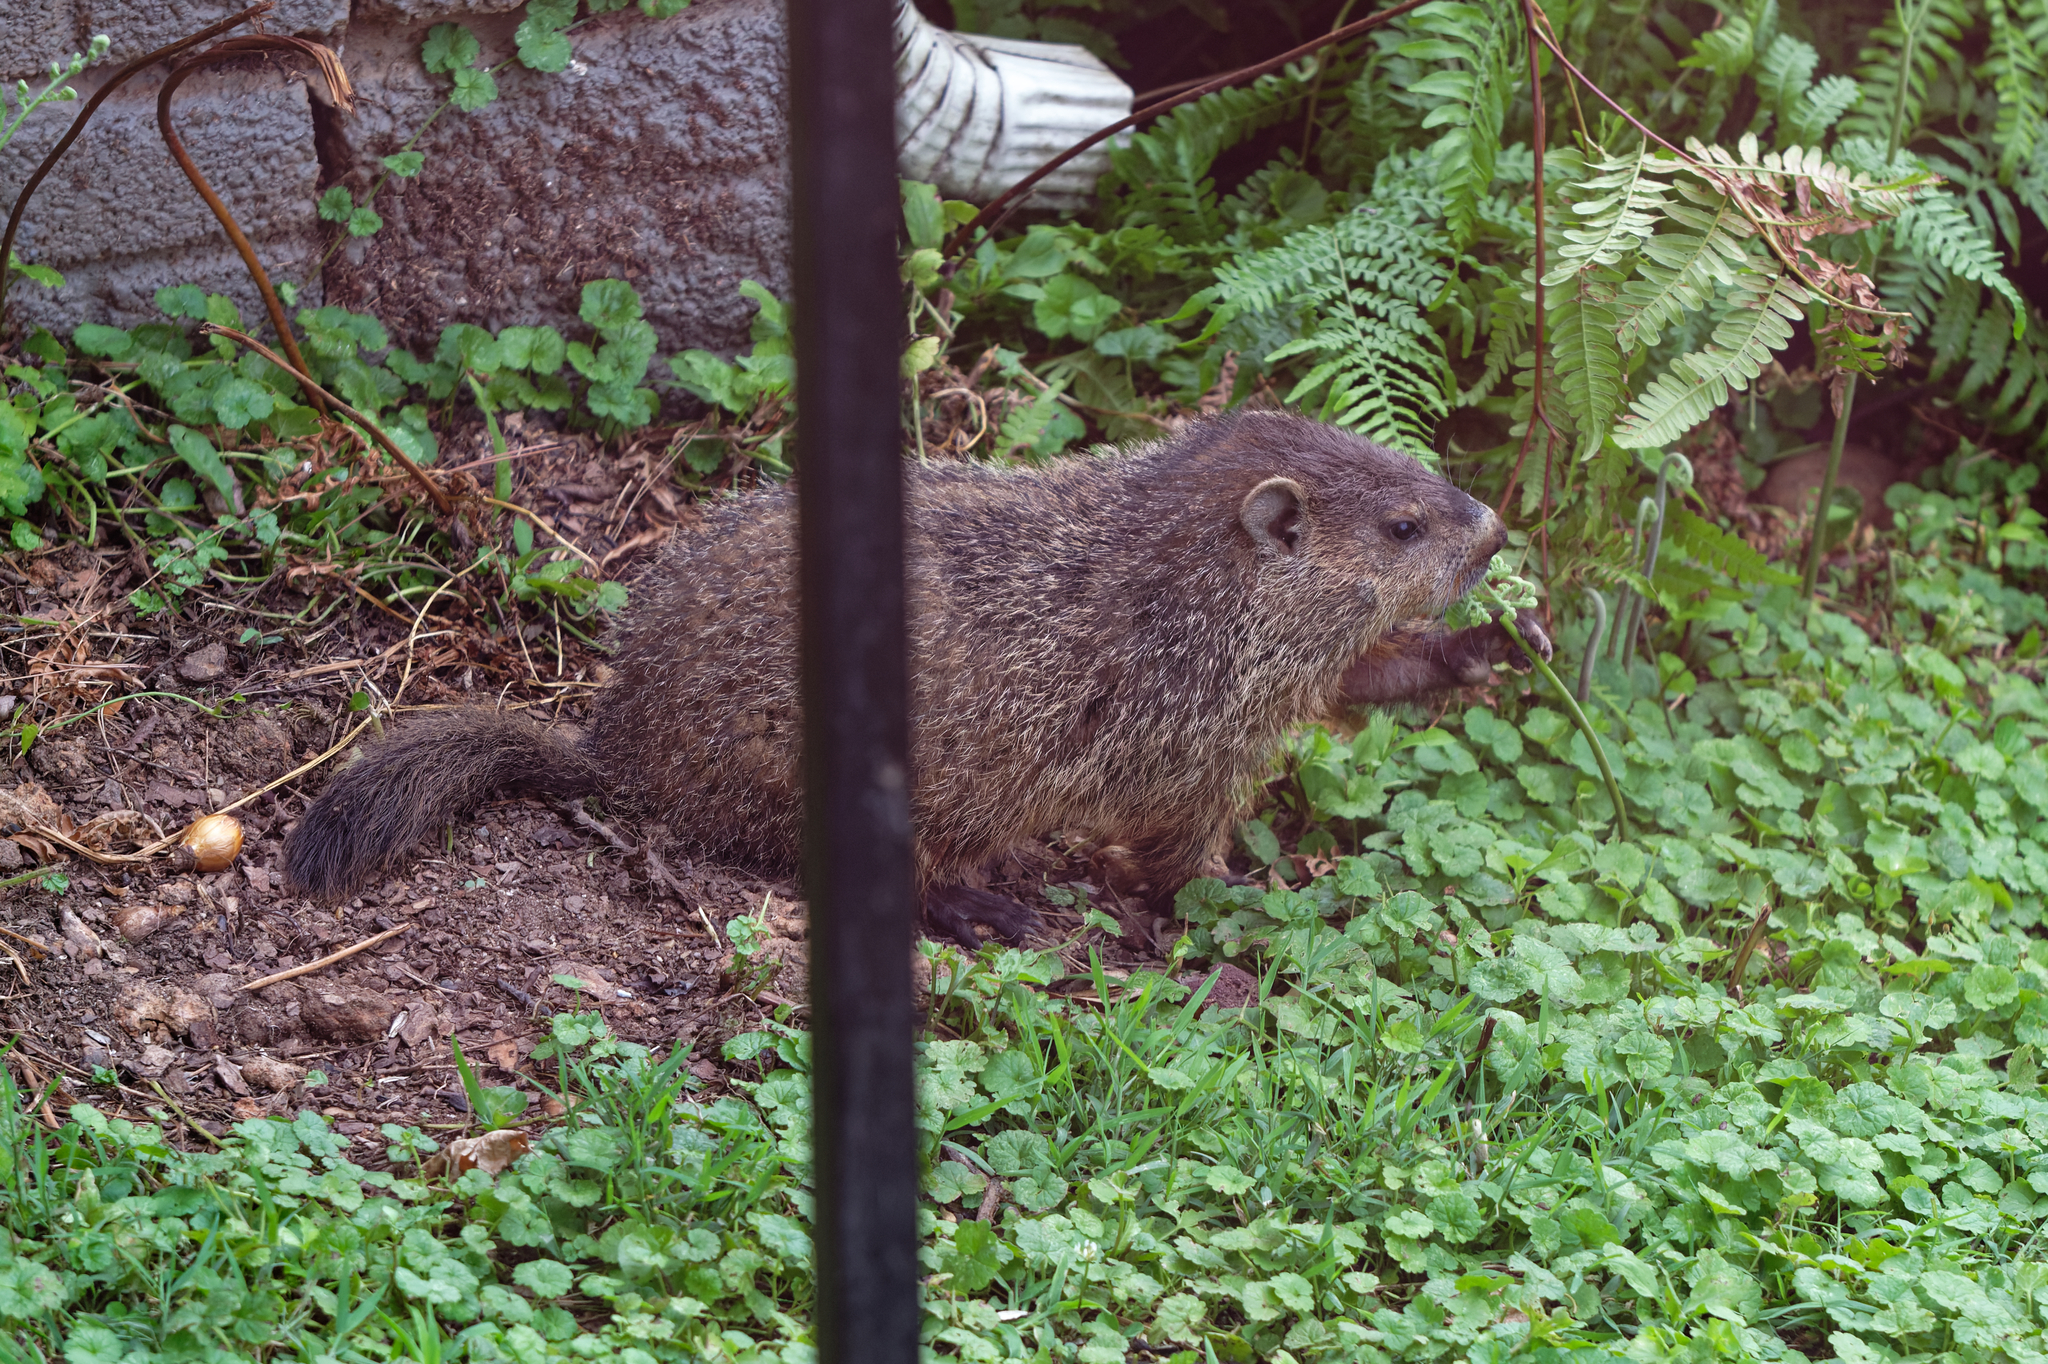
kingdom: Animalia
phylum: Chordata
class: Mammalia
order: Rodentia
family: Sciuridae
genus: Marmota
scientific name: Marmota monax
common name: Groundhog
